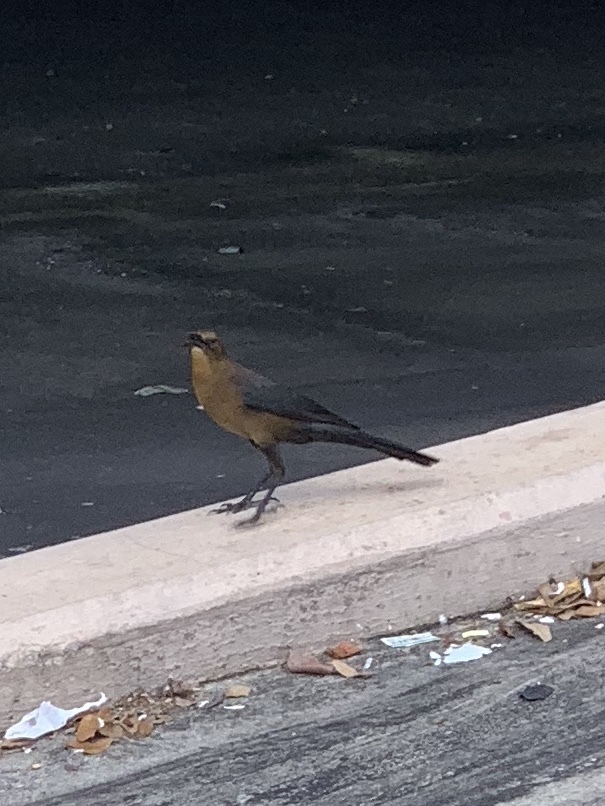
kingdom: Animalia
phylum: Chordata
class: Aves
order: Passeriformes
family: Icteridae
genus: Quiscalus
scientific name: Quiscalus major
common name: Boat-tailed grackle
